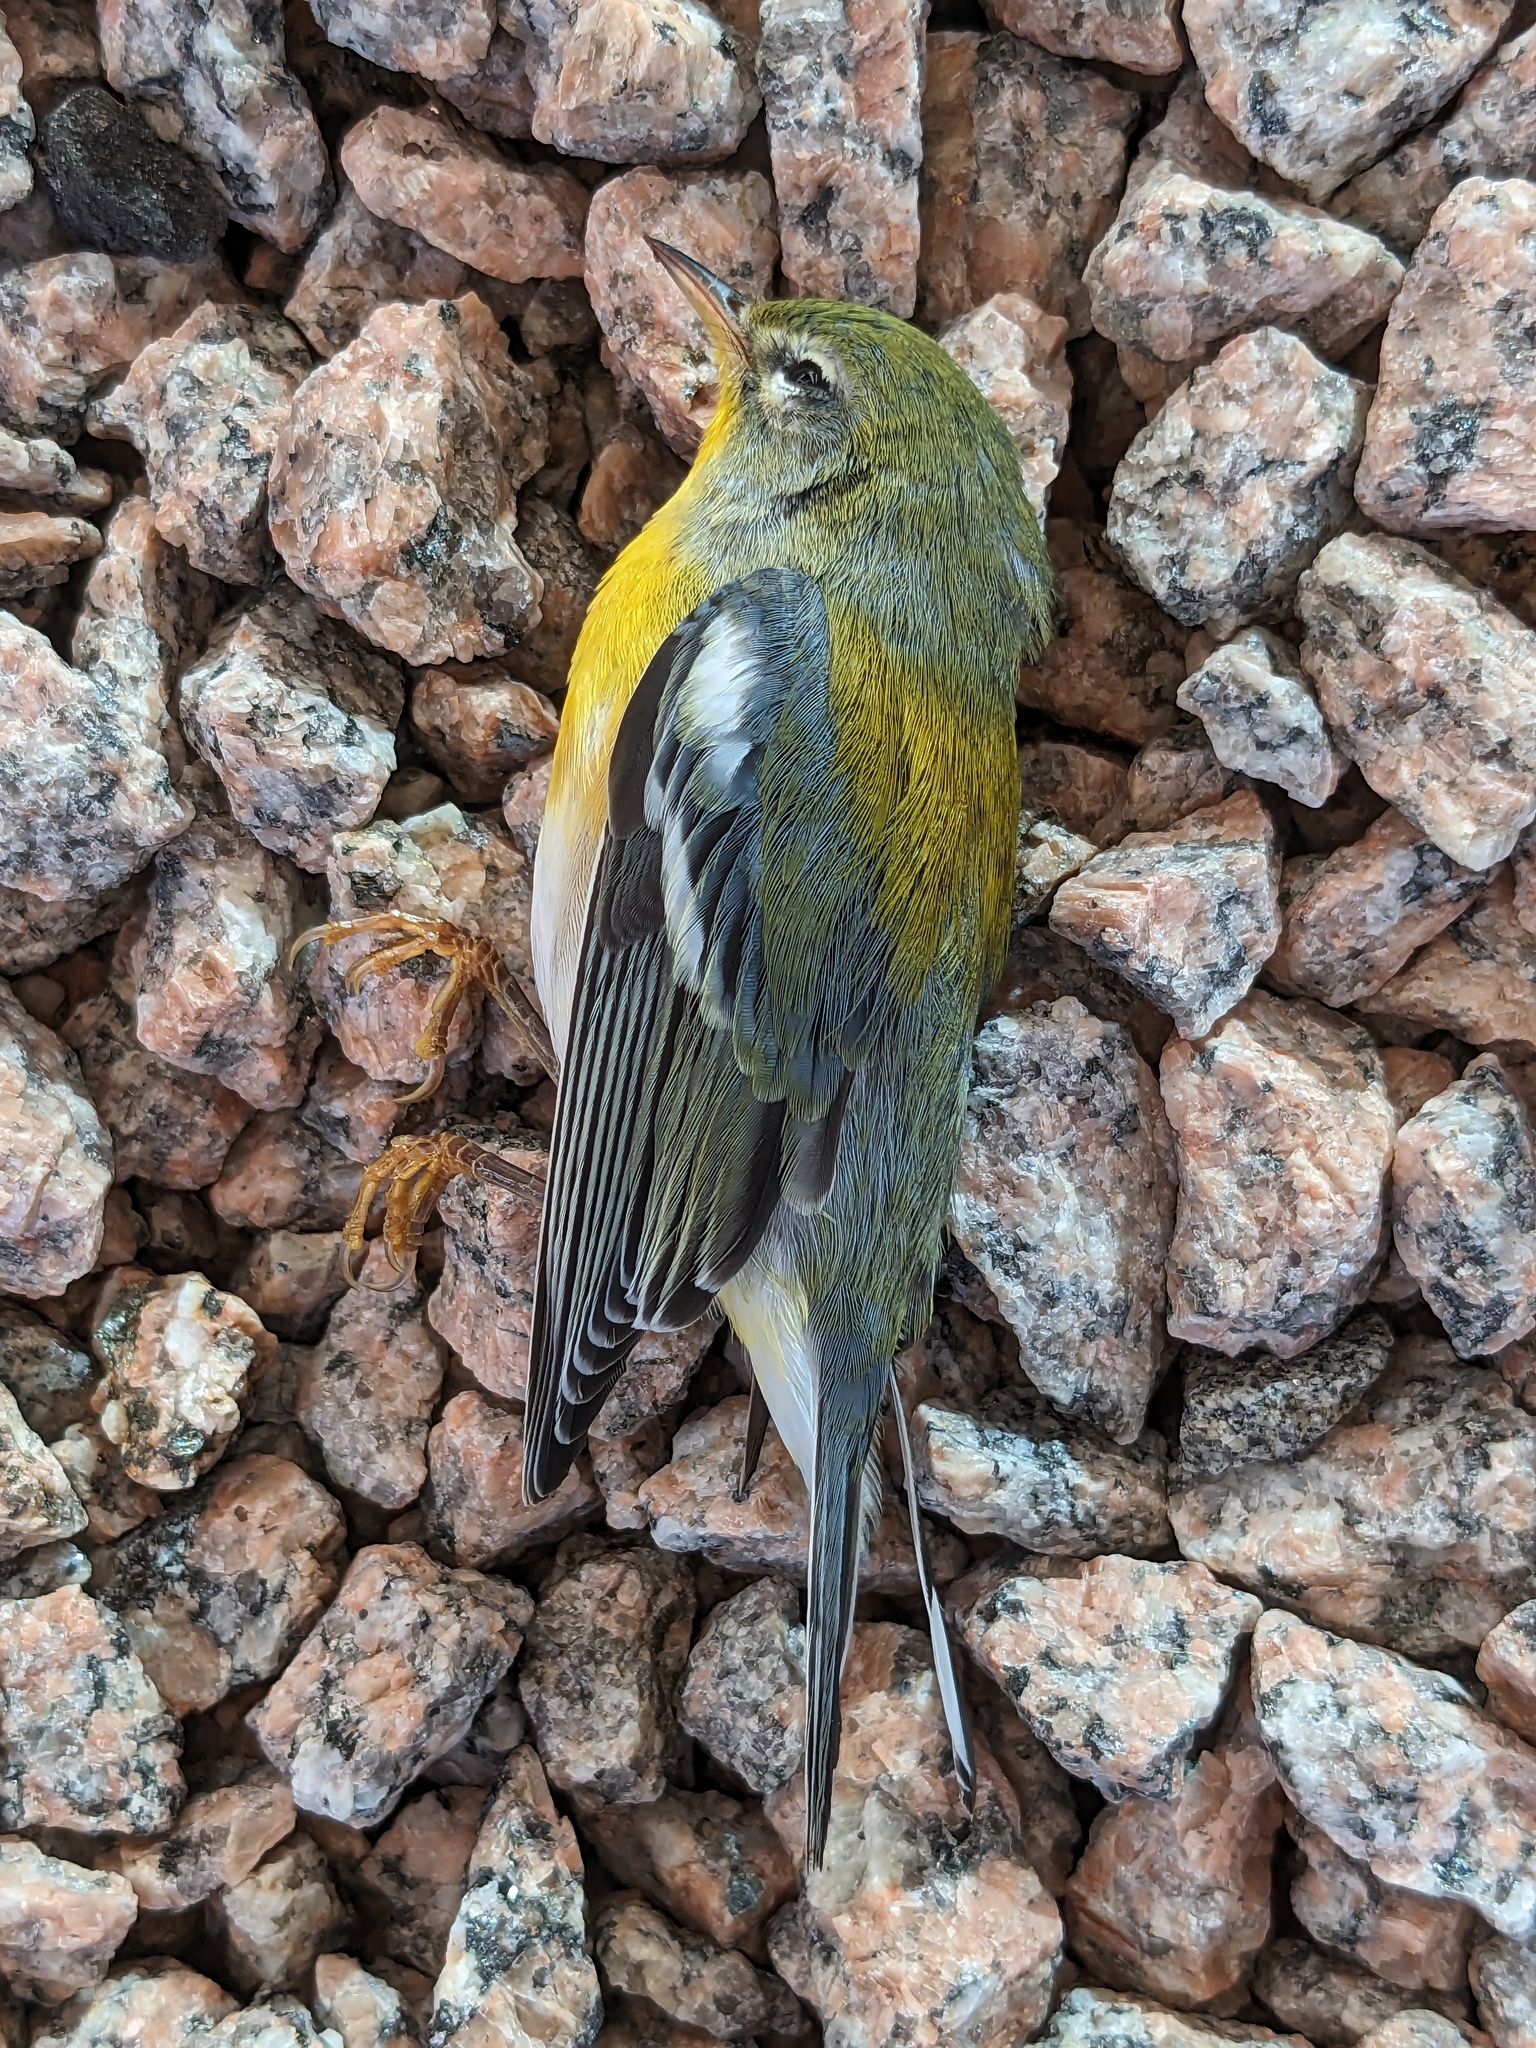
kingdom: Animalia
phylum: Chordata
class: Aves
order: Passeriformes
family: Parulidae
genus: Setophaga
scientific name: Setophaga americana
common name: Northern parula
